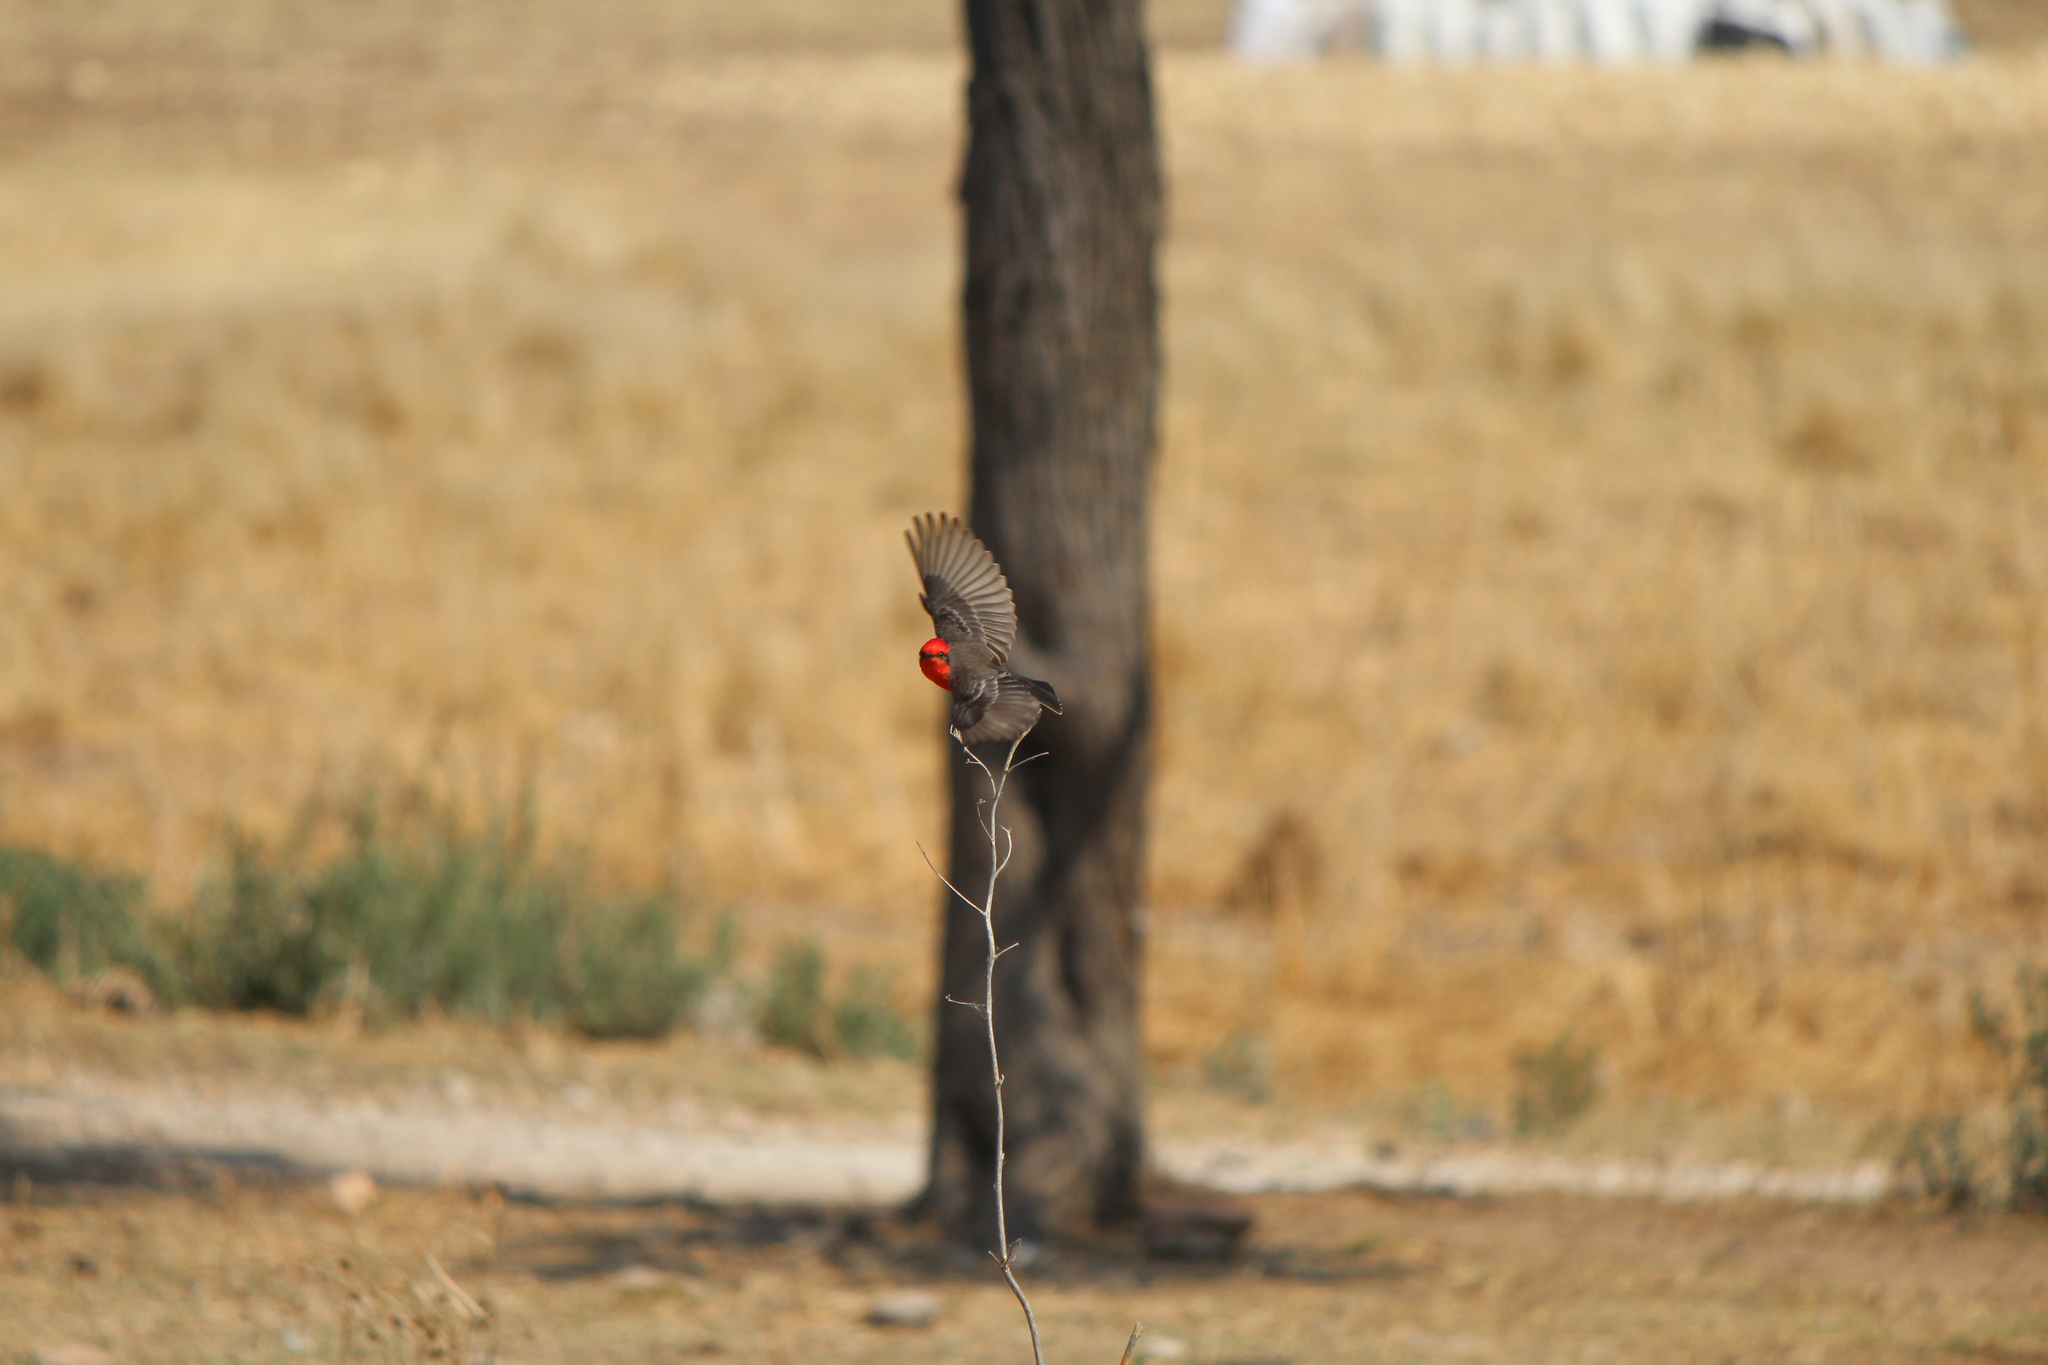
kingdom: Animalia
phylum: Chordata
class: Aves
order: Passeriformes
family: Tyrannidae
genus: Pyrocephalus
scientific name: Pyrocephalus rubinus
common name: Vermilion flycatcher
